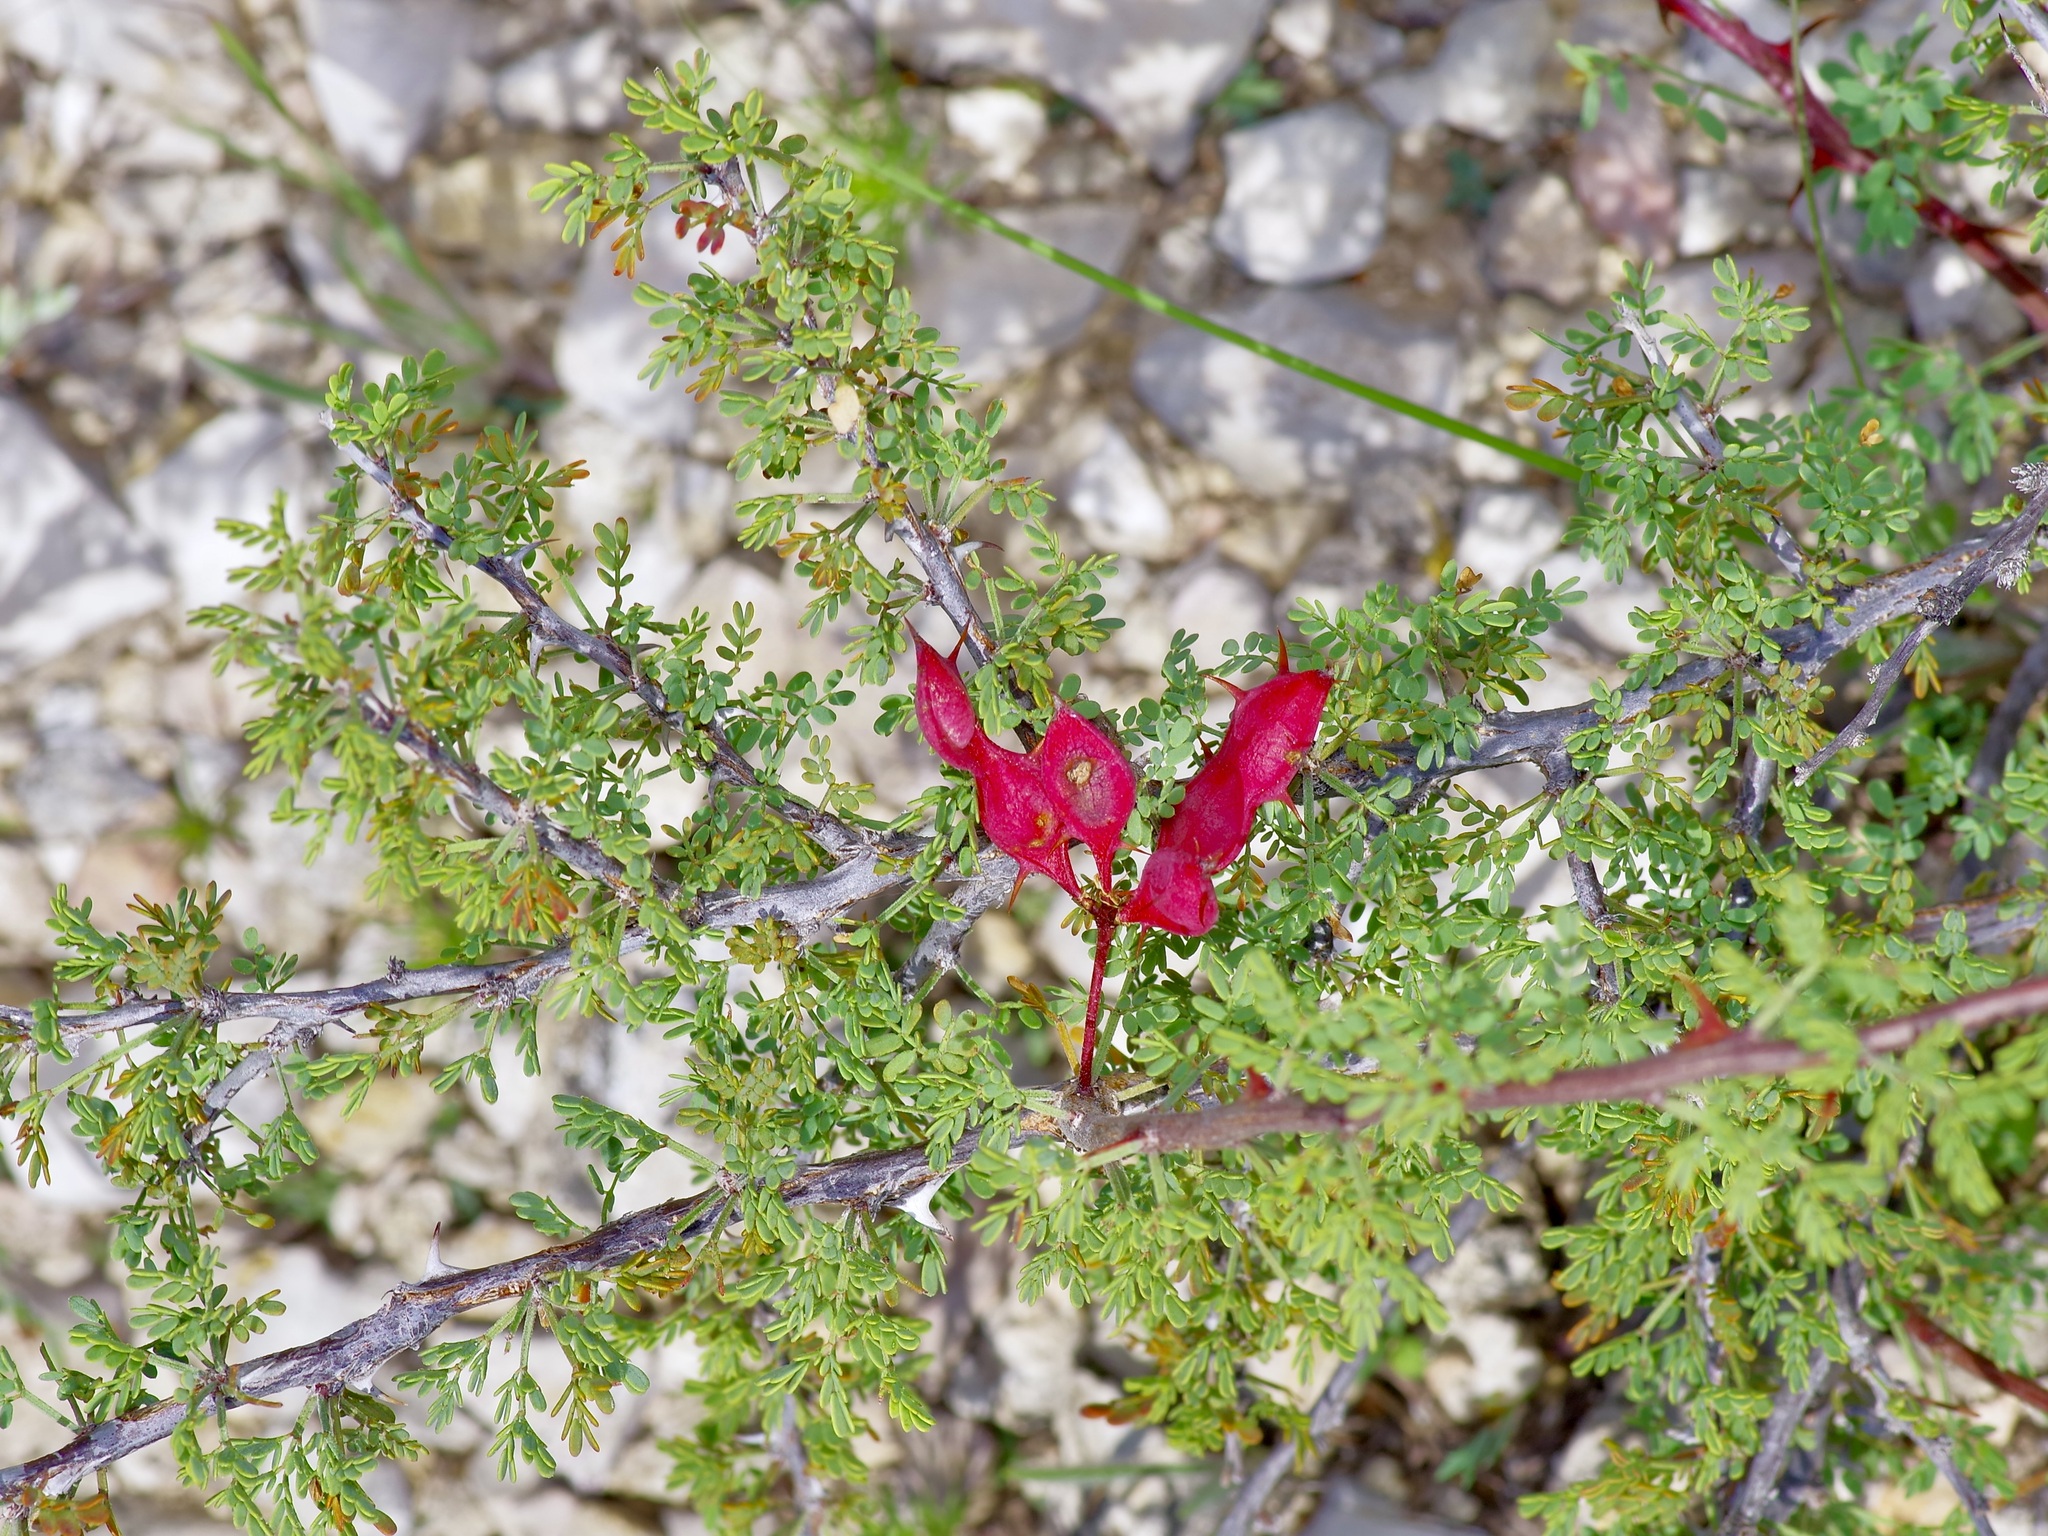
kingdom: Plantae
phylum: Tracheophyta
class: Magnoliopsida
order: Fabales
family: Fabaceae
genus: Mimosa
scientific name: Mimosa texana
